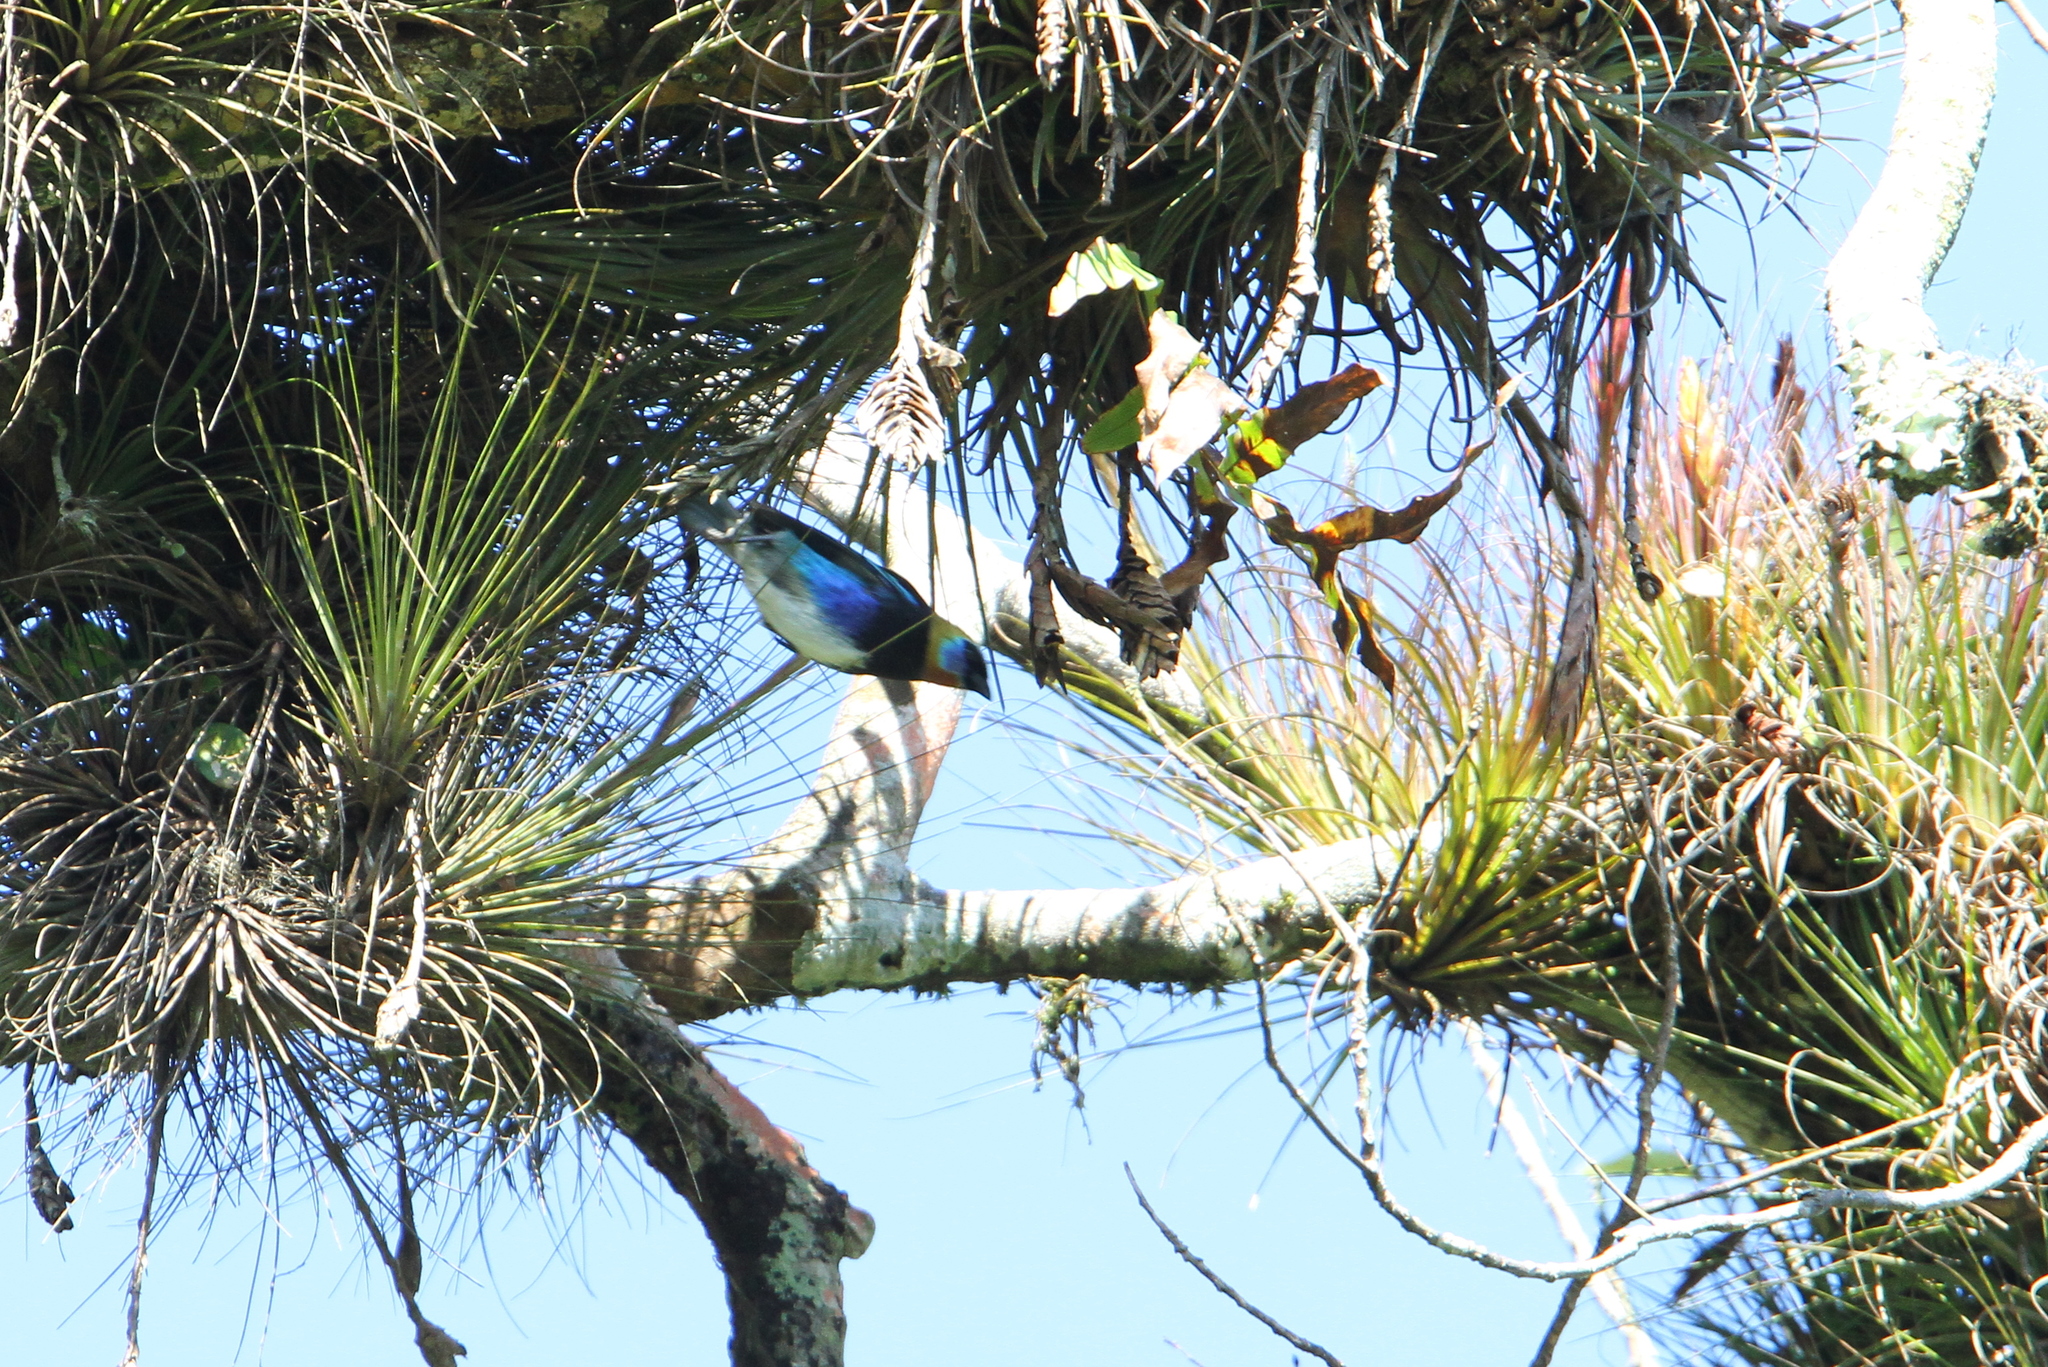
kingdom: Animalia
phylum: Chordata
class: Aves
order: Passeriformes
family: Thraupidae
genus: Stilpnia
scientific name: Stilpnia larvata
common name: Golden-hooded tanager
